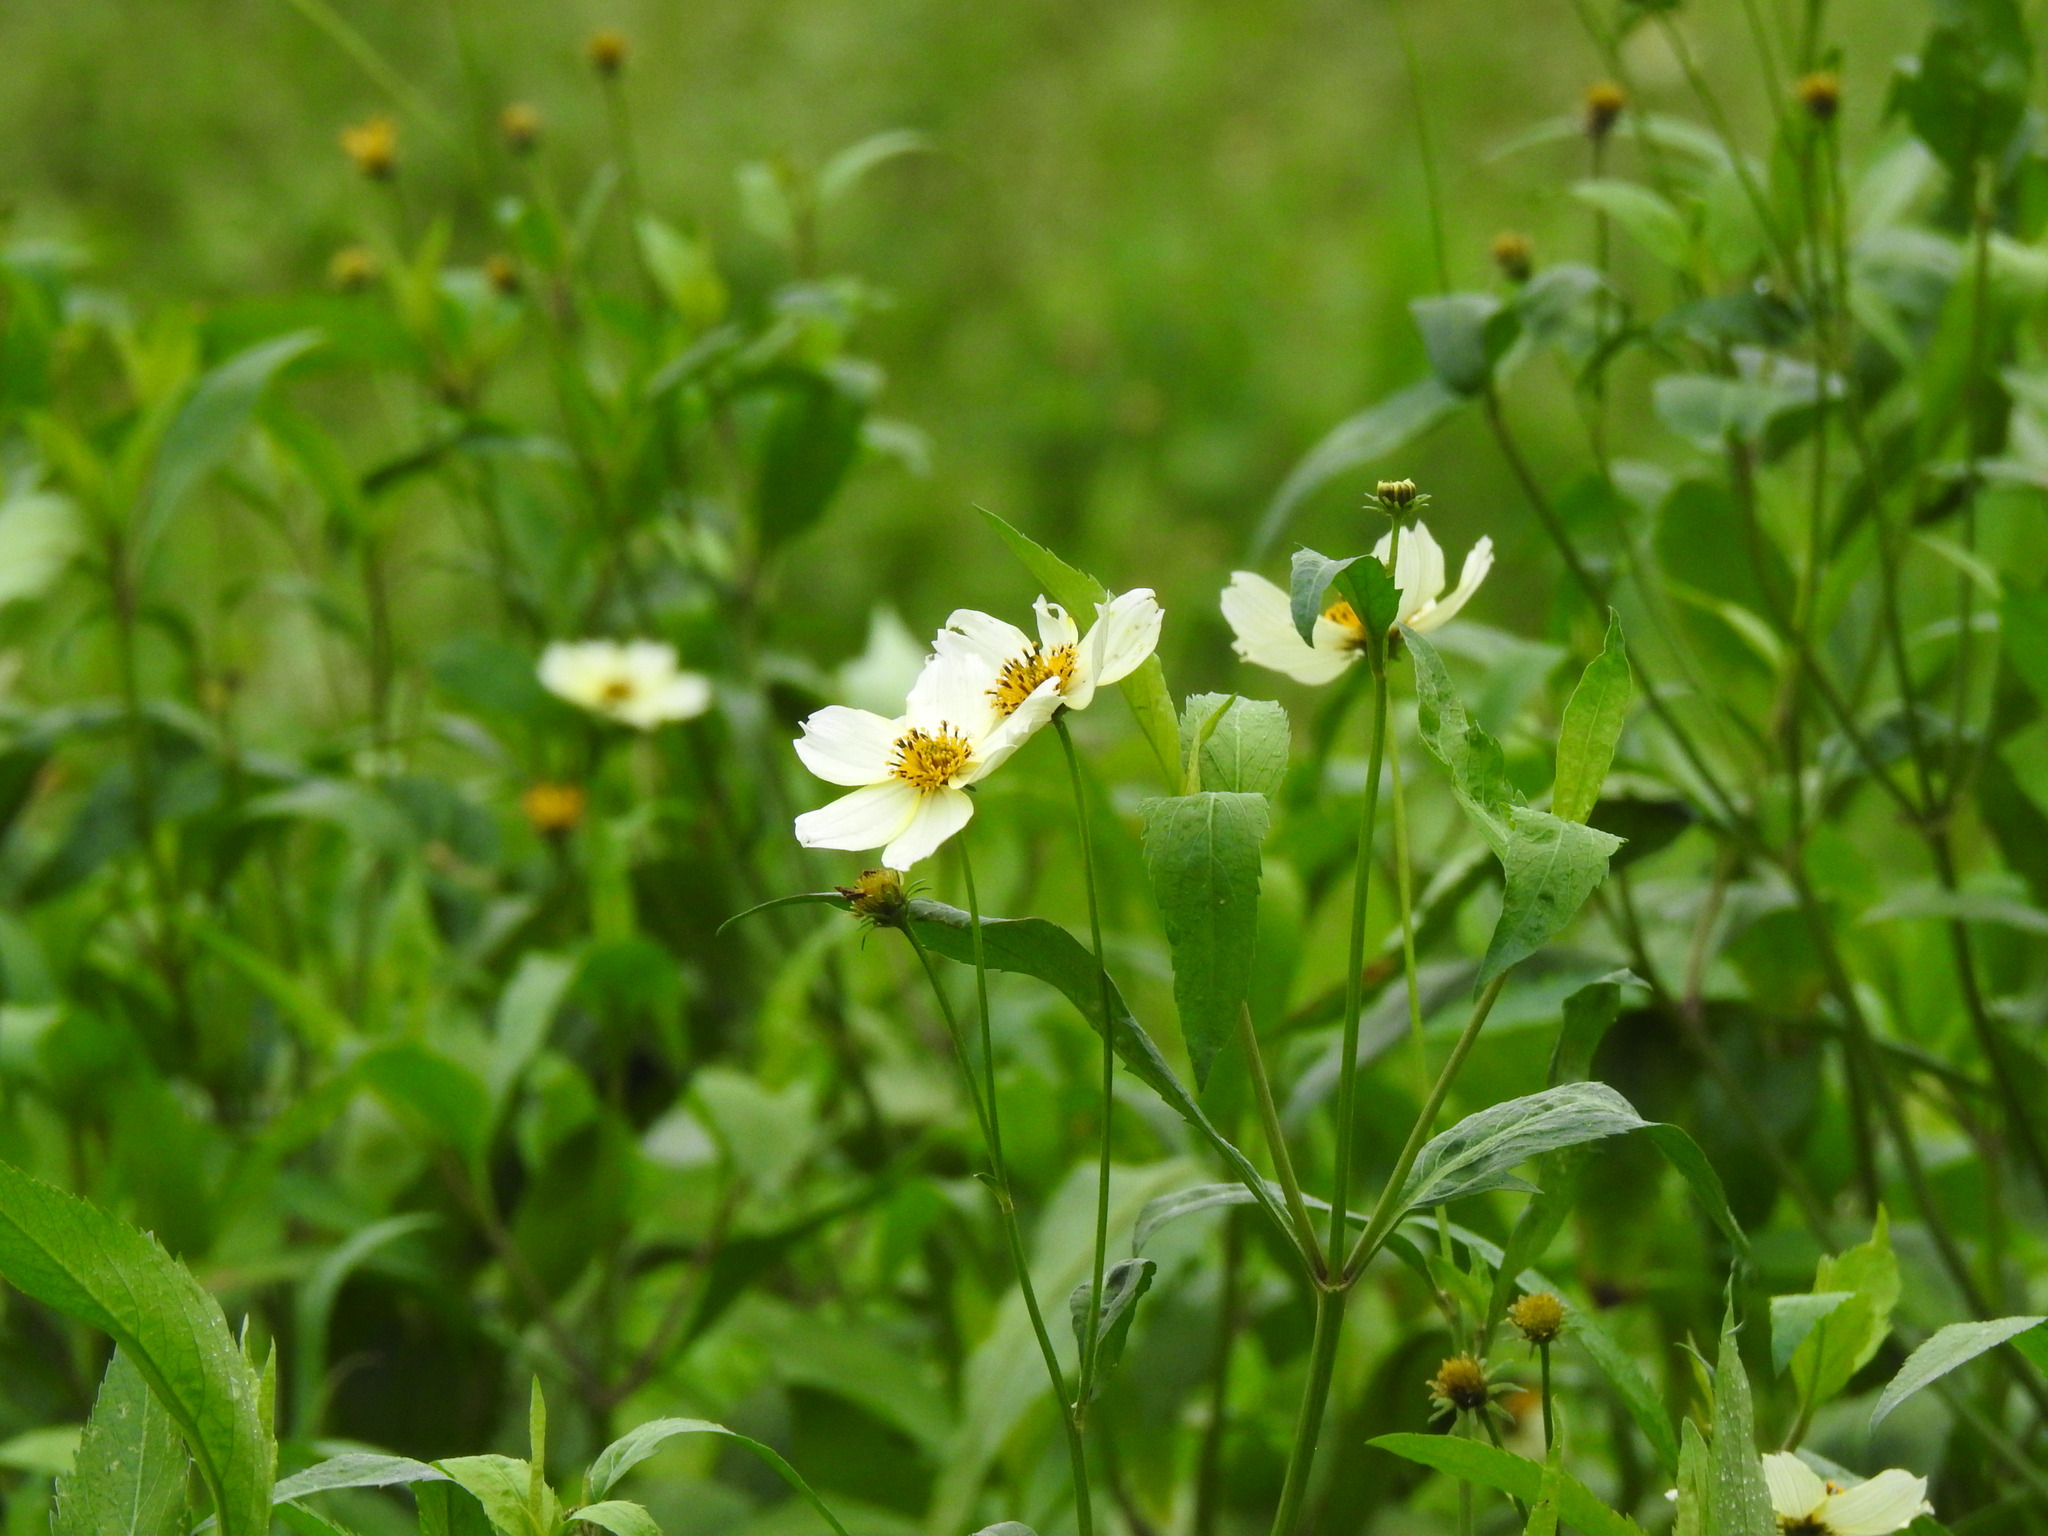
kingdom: Plantae
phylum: Tracheophyta
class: Magnoliopsida
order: Asterales
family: Asteraceae
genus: Bidens
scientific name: Bidens aurea
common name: Arizona beggar-ticks
